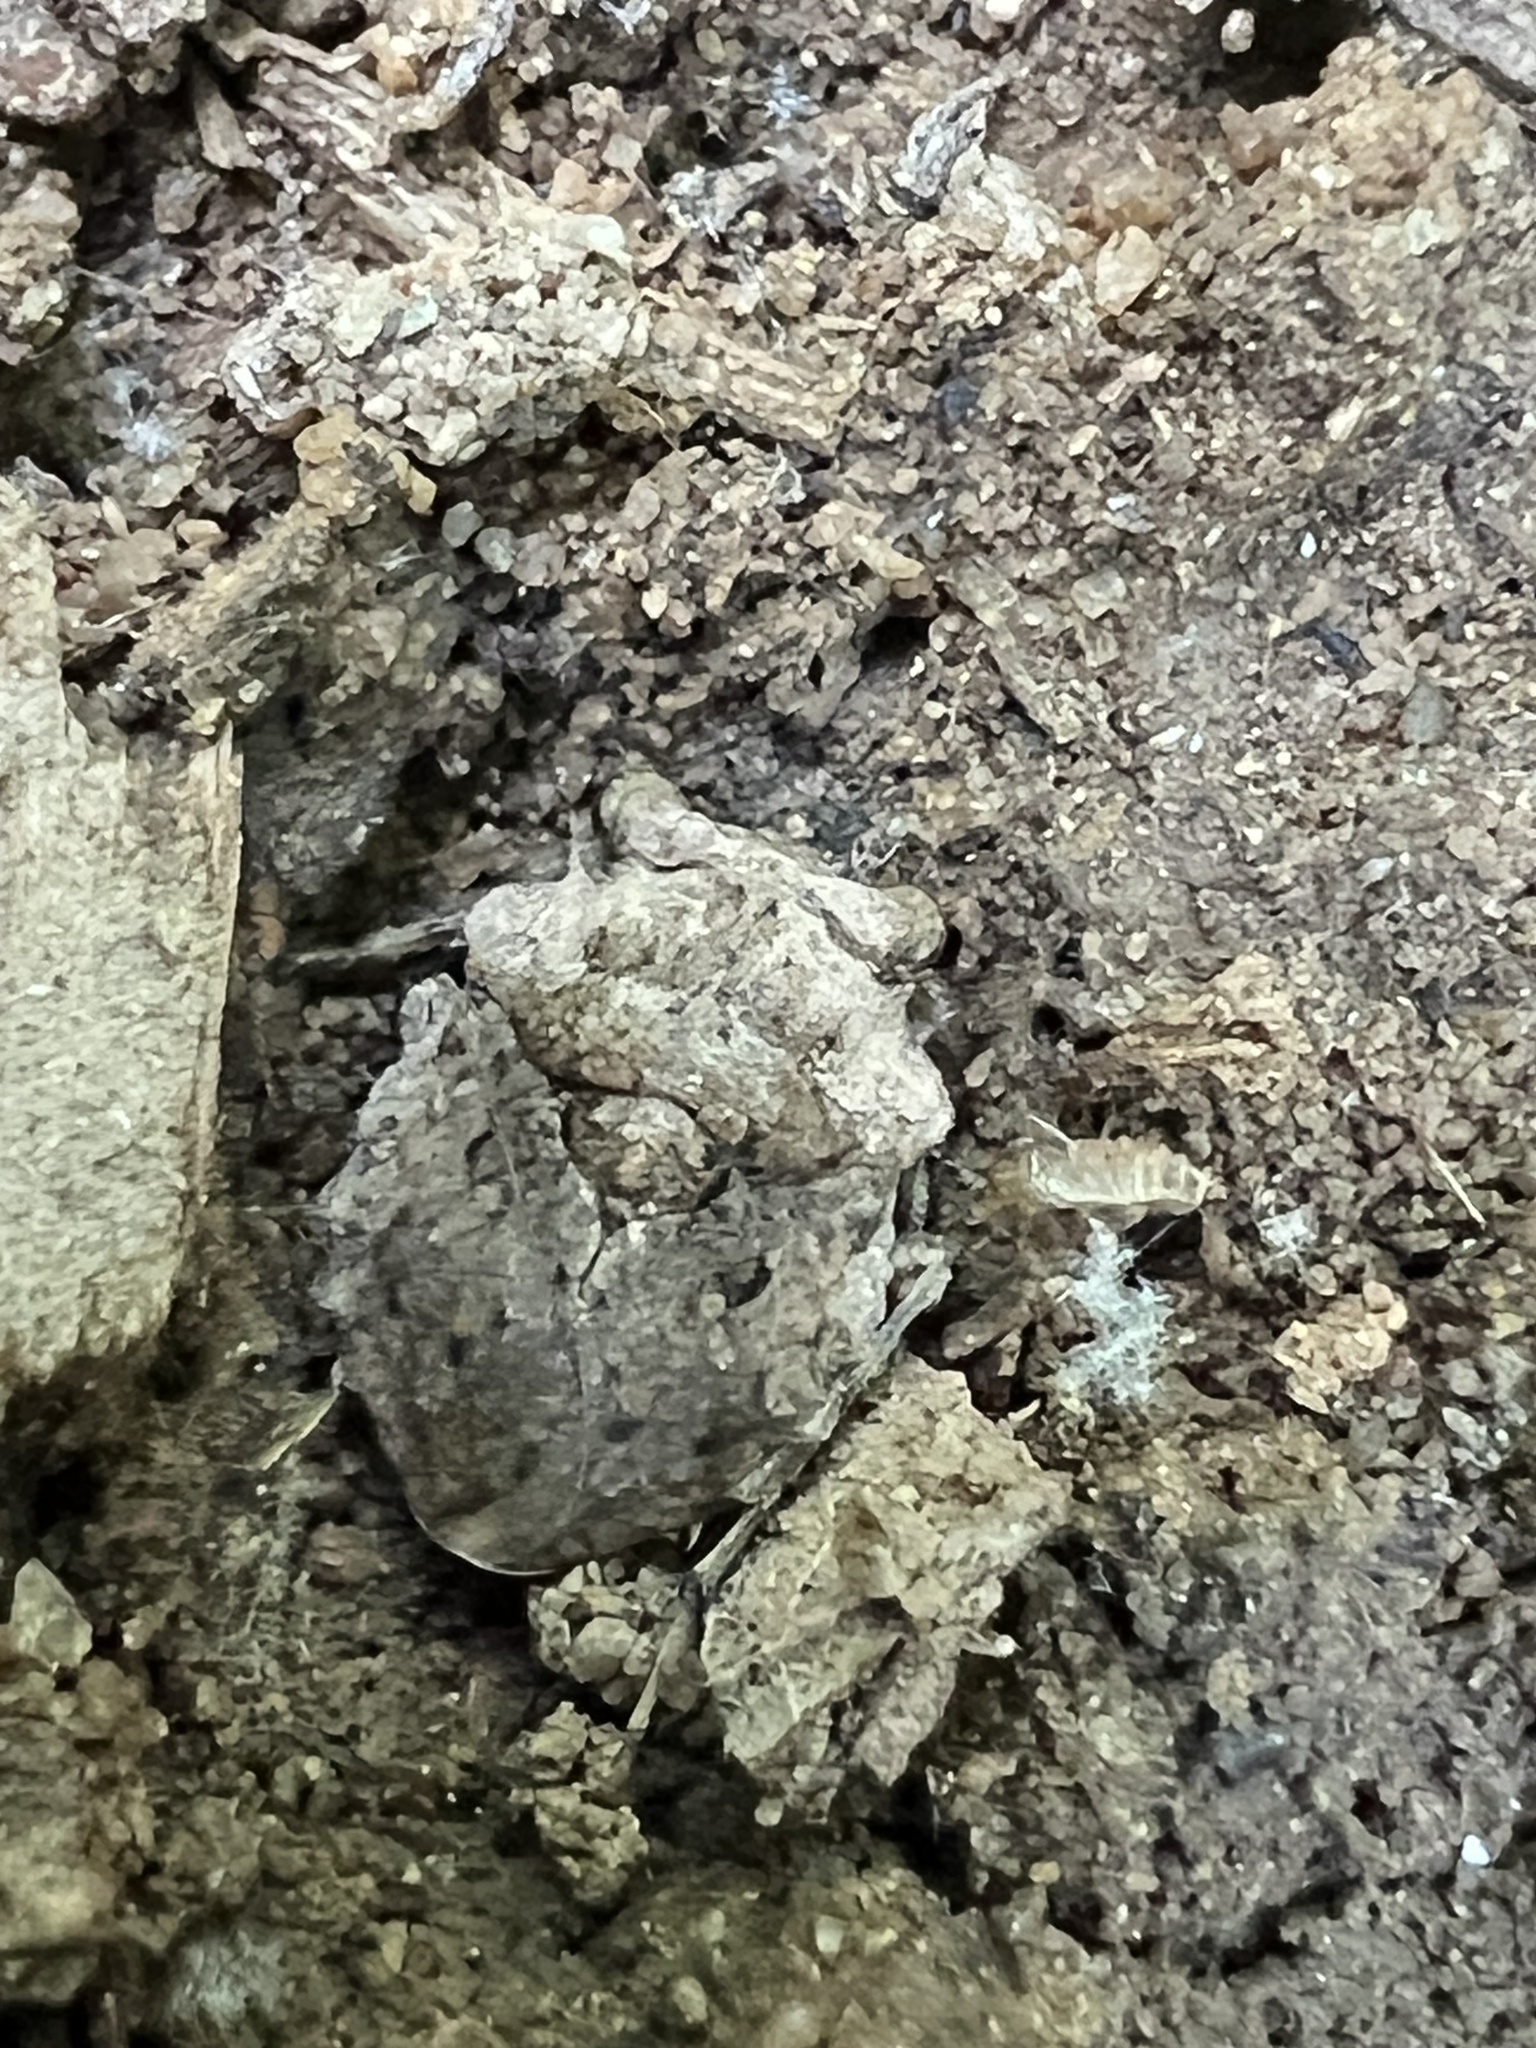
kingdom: Animalia
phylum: Arthropoda
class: Insecta
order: Hemiptera
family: Gelastocoridae
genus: Gelastocoris
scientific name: Gelastocoris oculatus
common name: Toad bug
